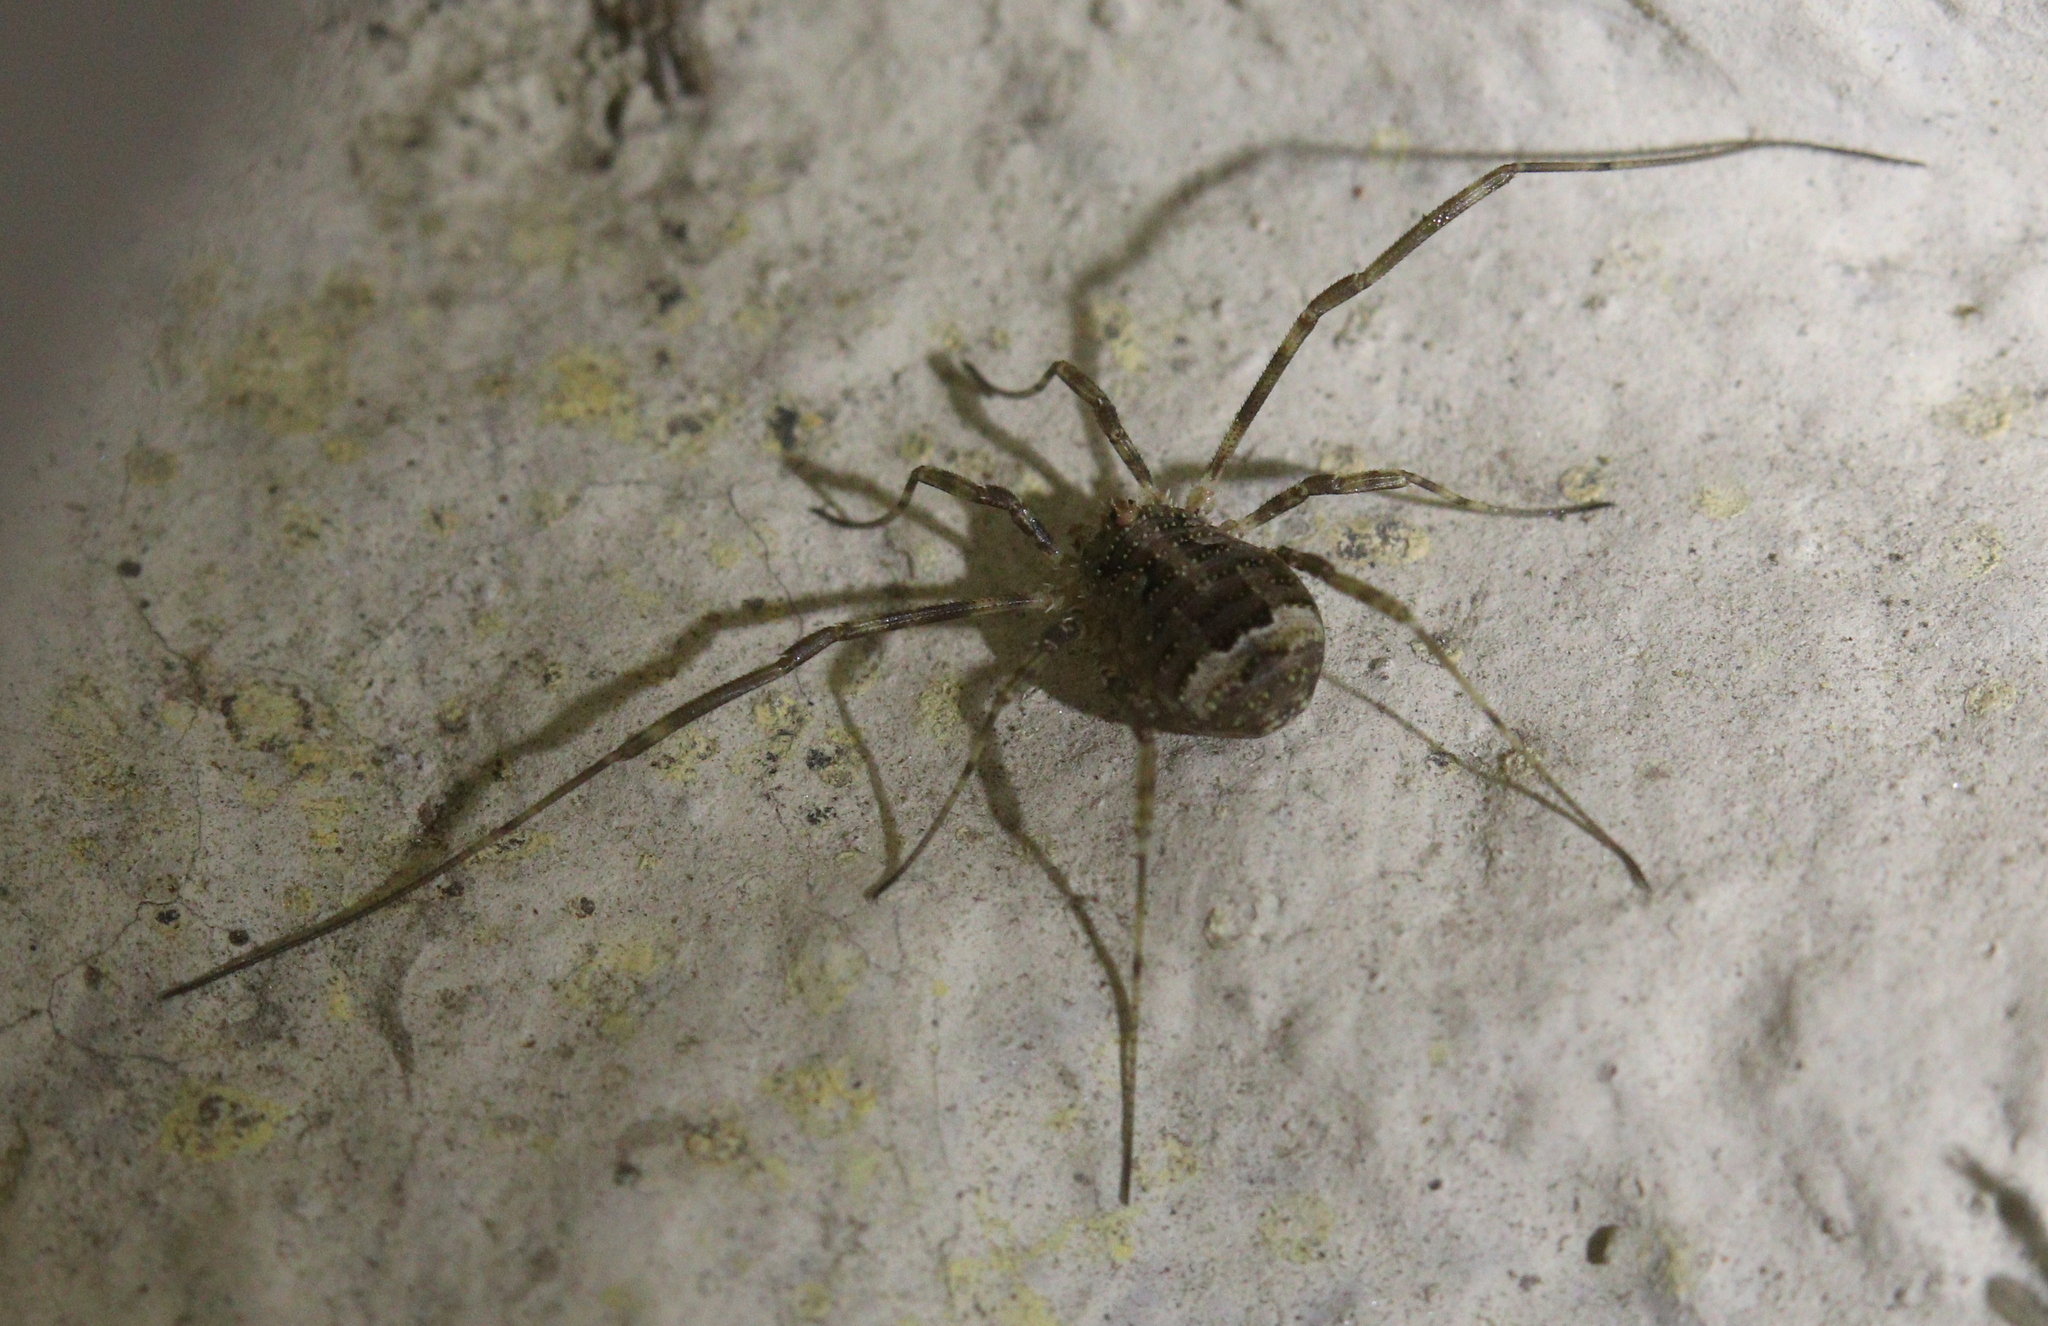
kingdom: Animalia
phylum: Arthropoda
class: Arachnida
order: Opiliones
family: Phalangiidae
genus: Lacinius
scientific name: Lacinius dentiger
